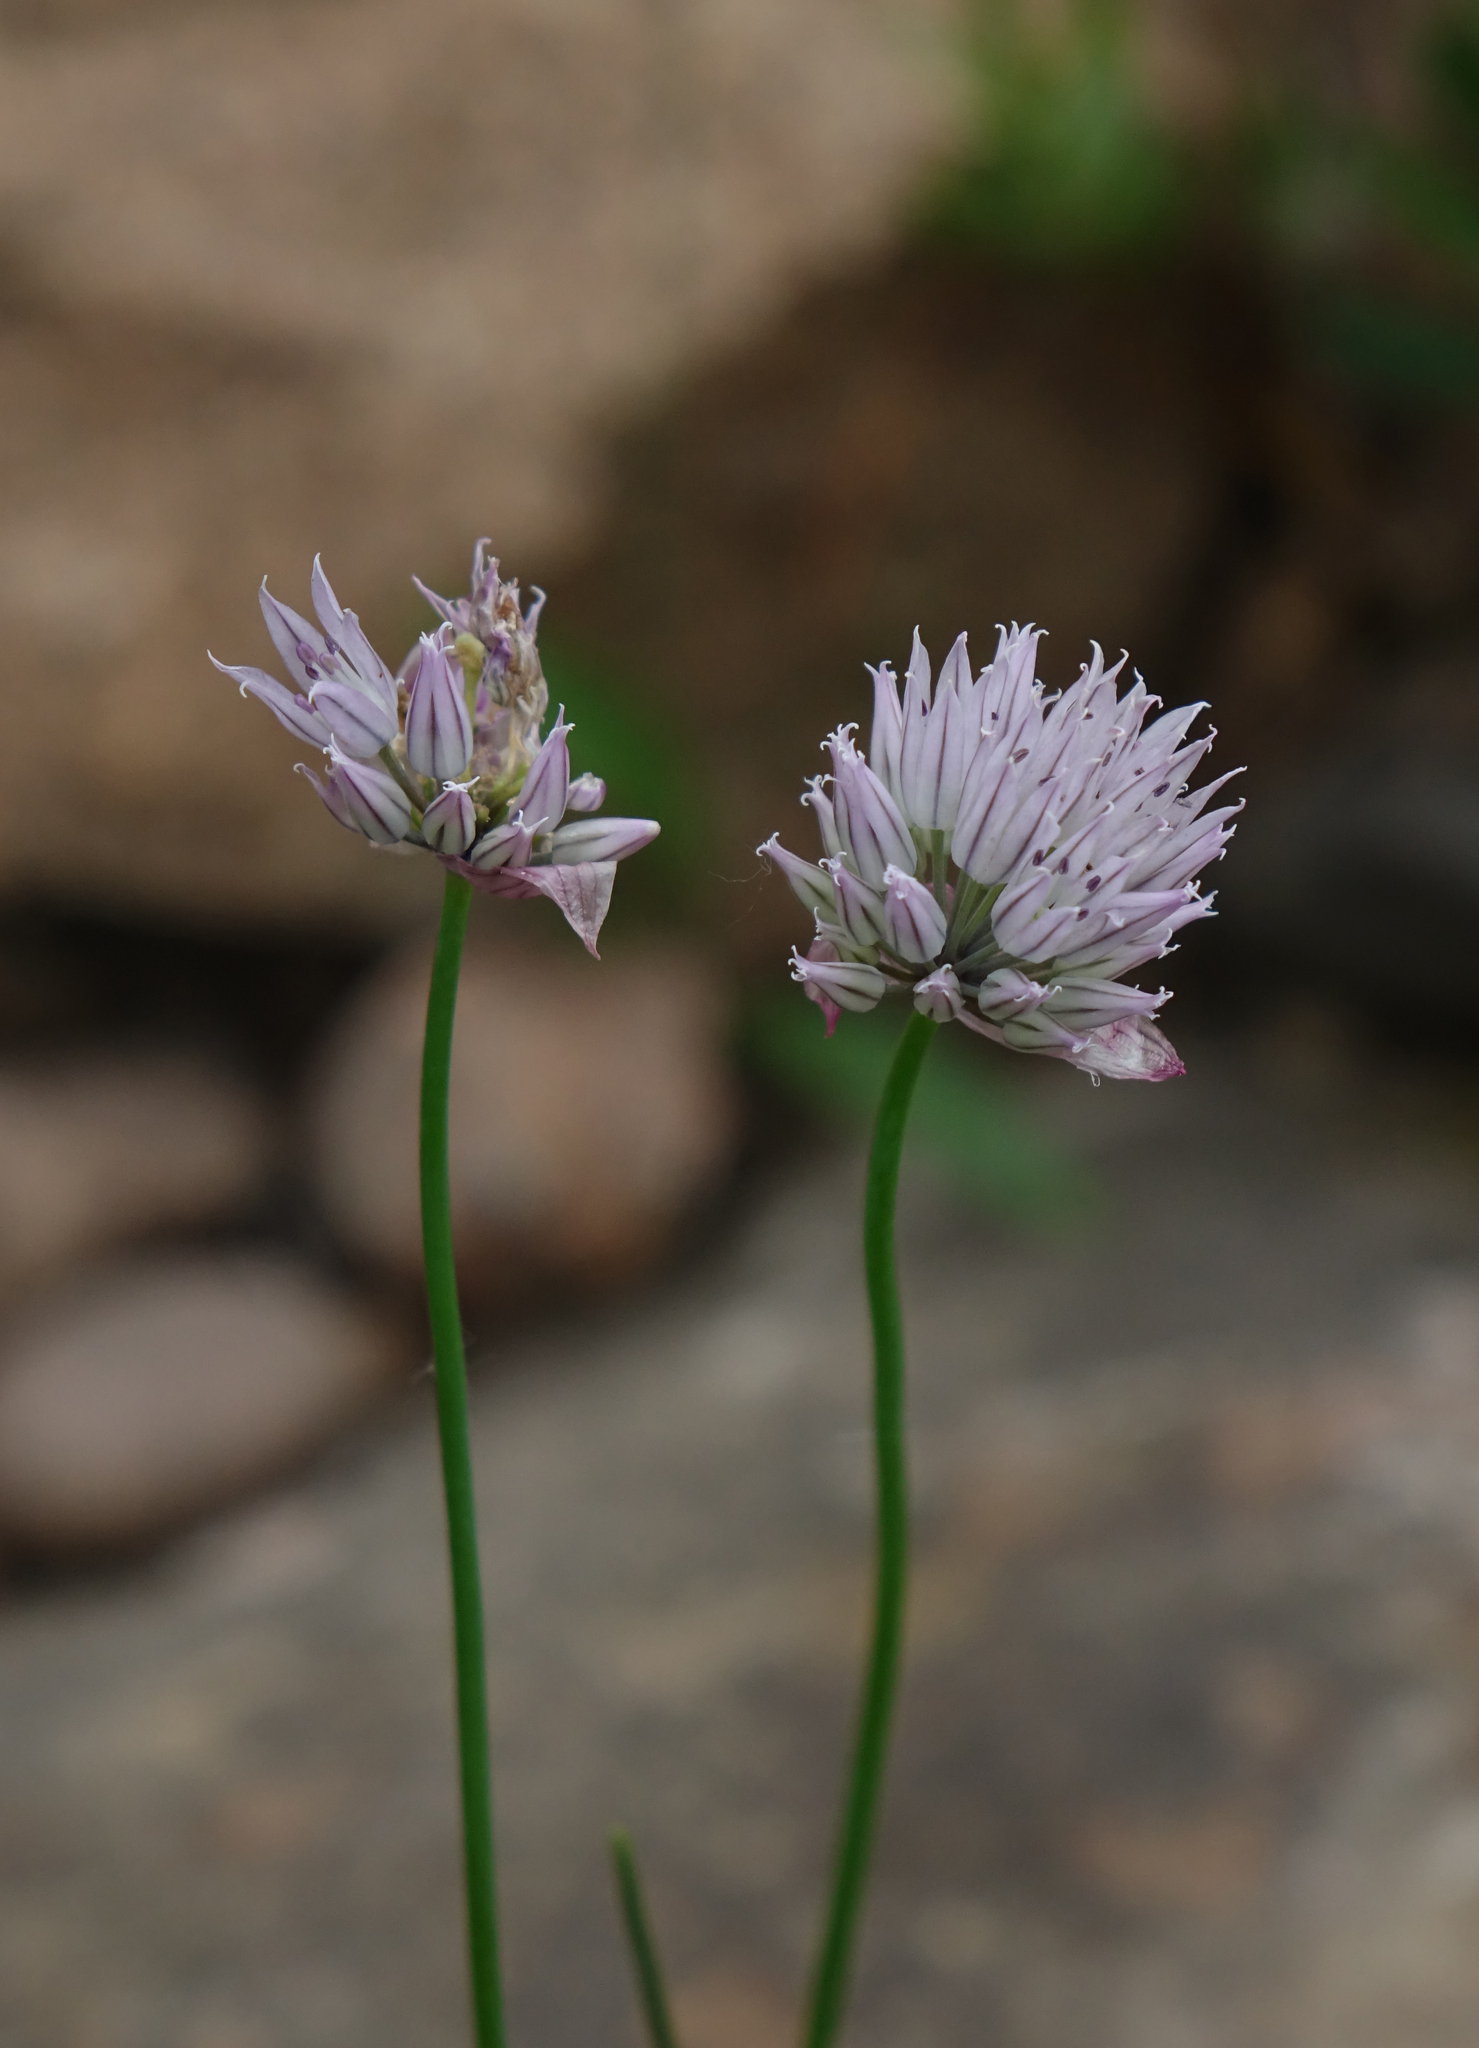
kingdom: Plantae
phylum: Tracheophyta
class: Liliopsida
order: Asparagales
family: Amaryllidaceae
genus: Allium
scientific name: Allium schoenoprasum
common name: Chives
